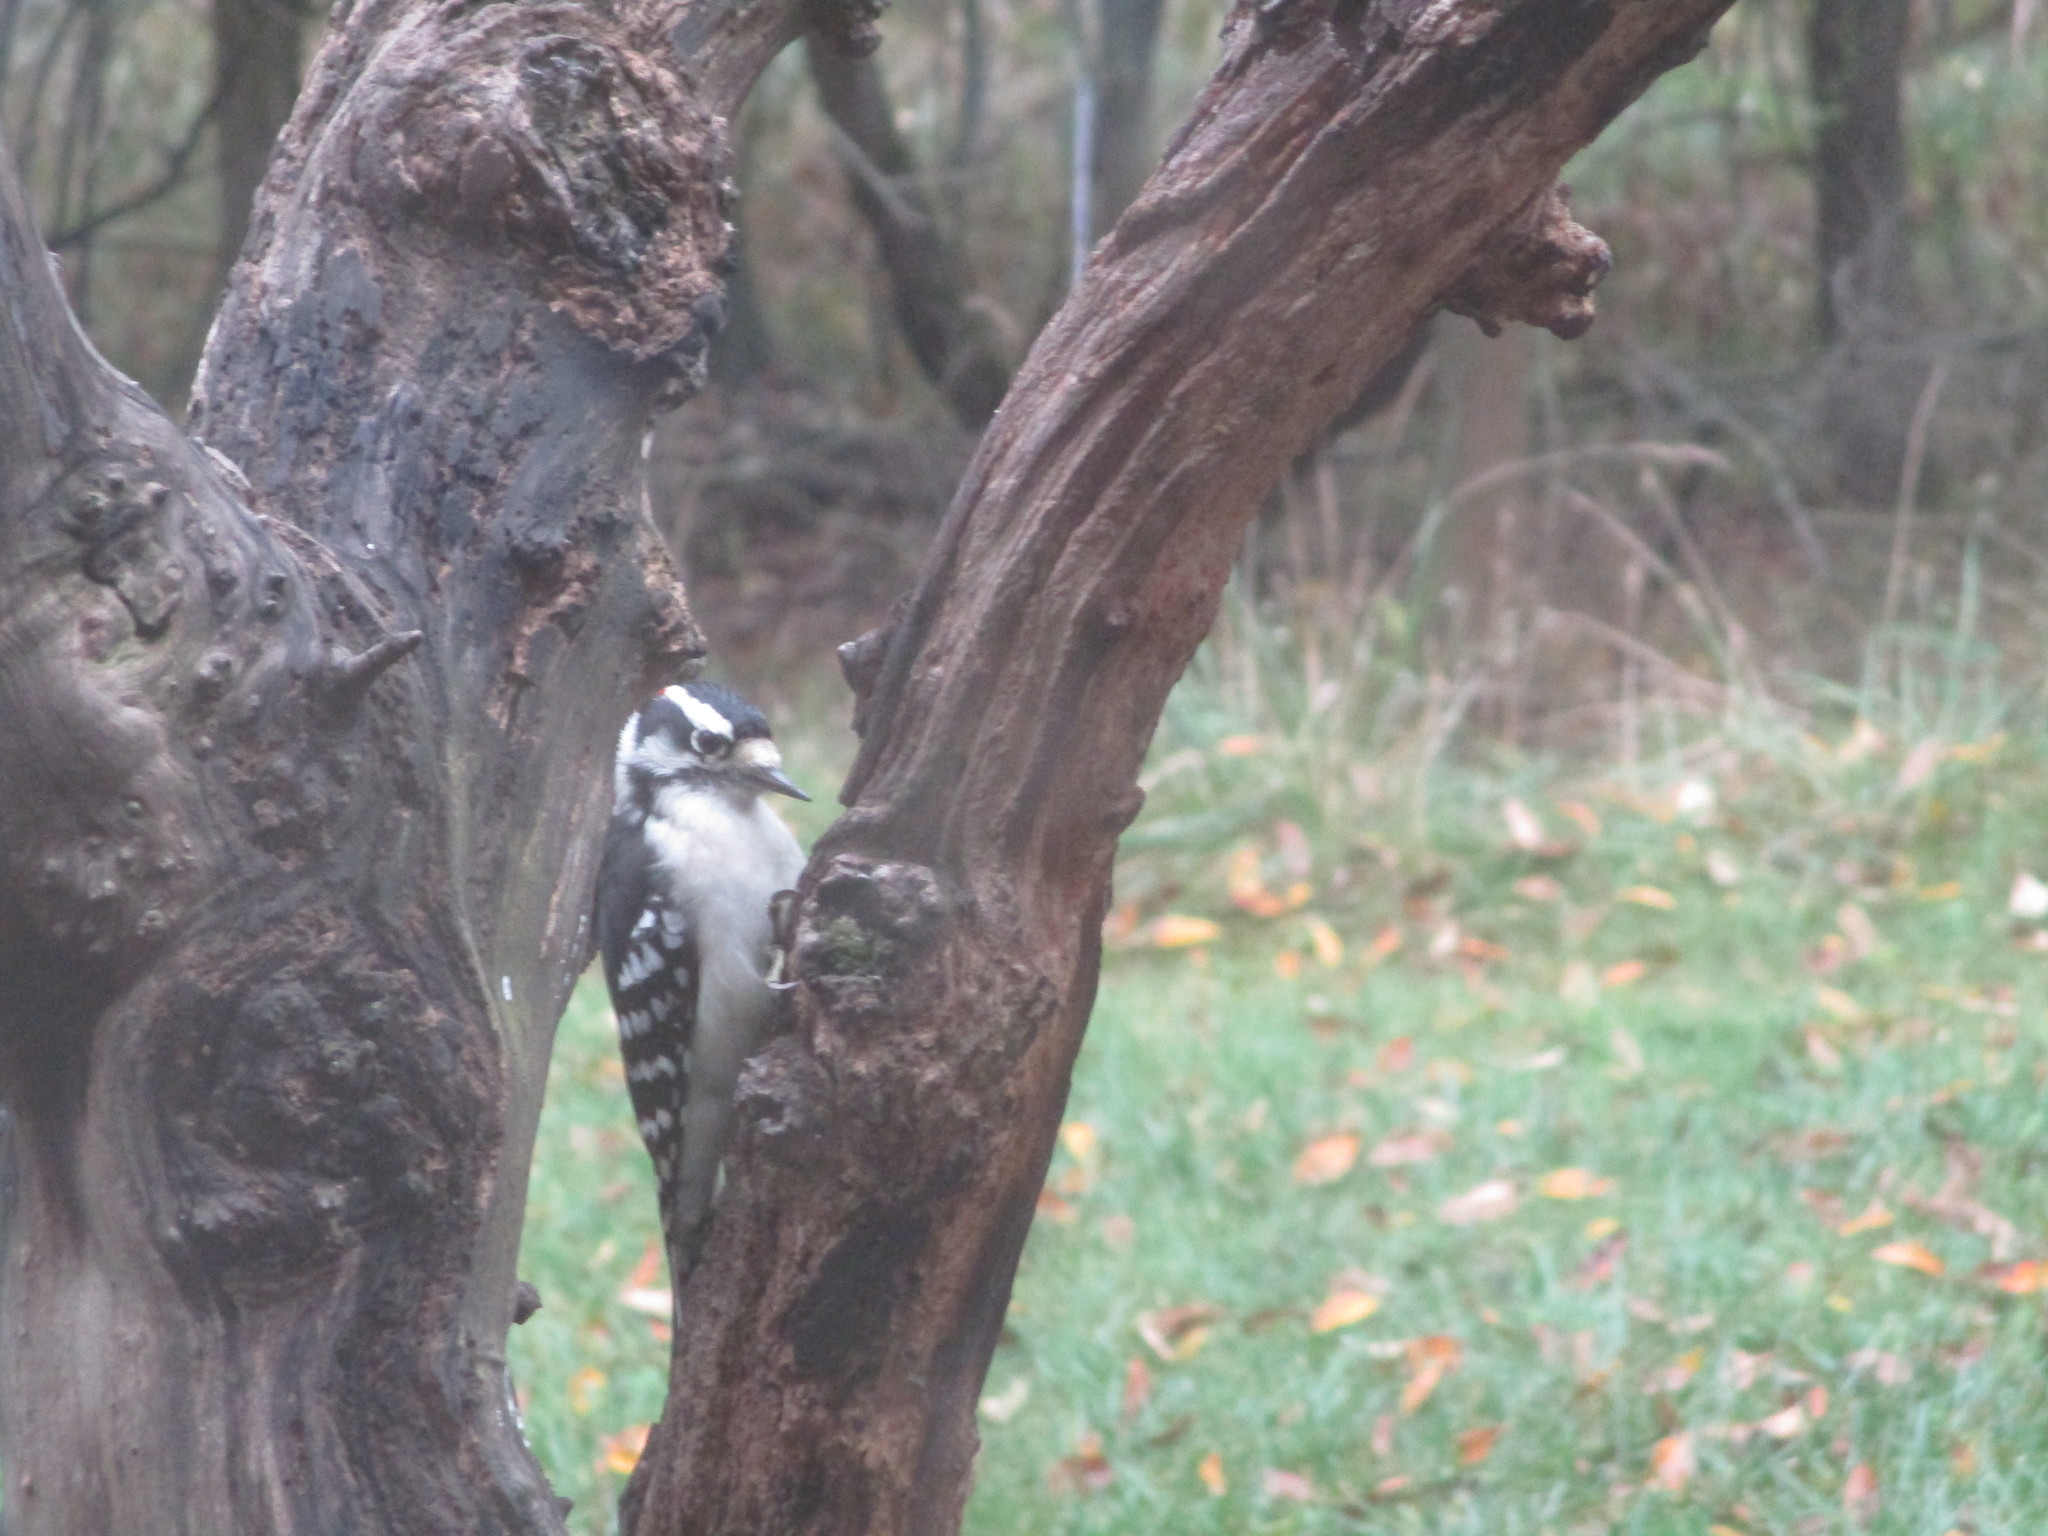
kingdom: Animalia
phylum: Chordata
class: Aves
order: Piciformes
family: Picidae
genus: Dryobates
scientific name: Dryobates pubescens
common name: Downy woodpecker
